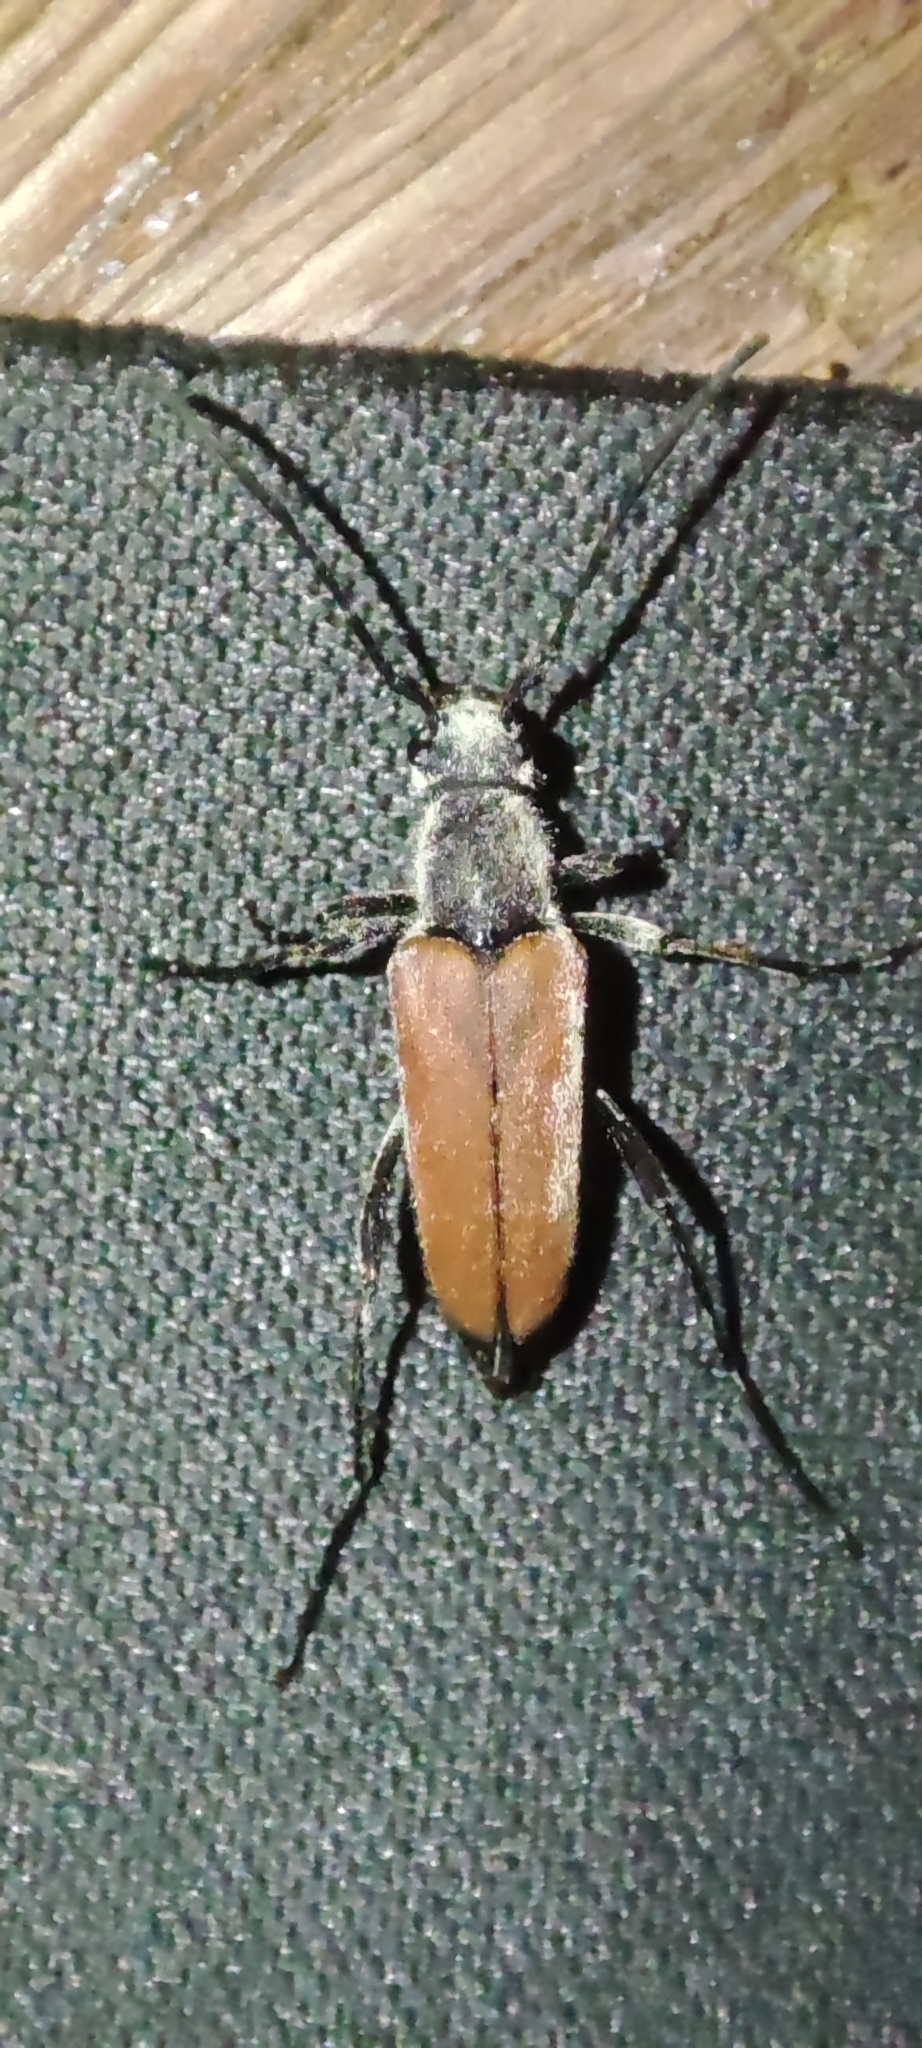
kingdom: Animalia
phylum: Arthropoda
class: Insecta
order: Coleoptera
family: Cerambycidae
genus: Anastrangalia
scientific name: Anastrangalia reyi
